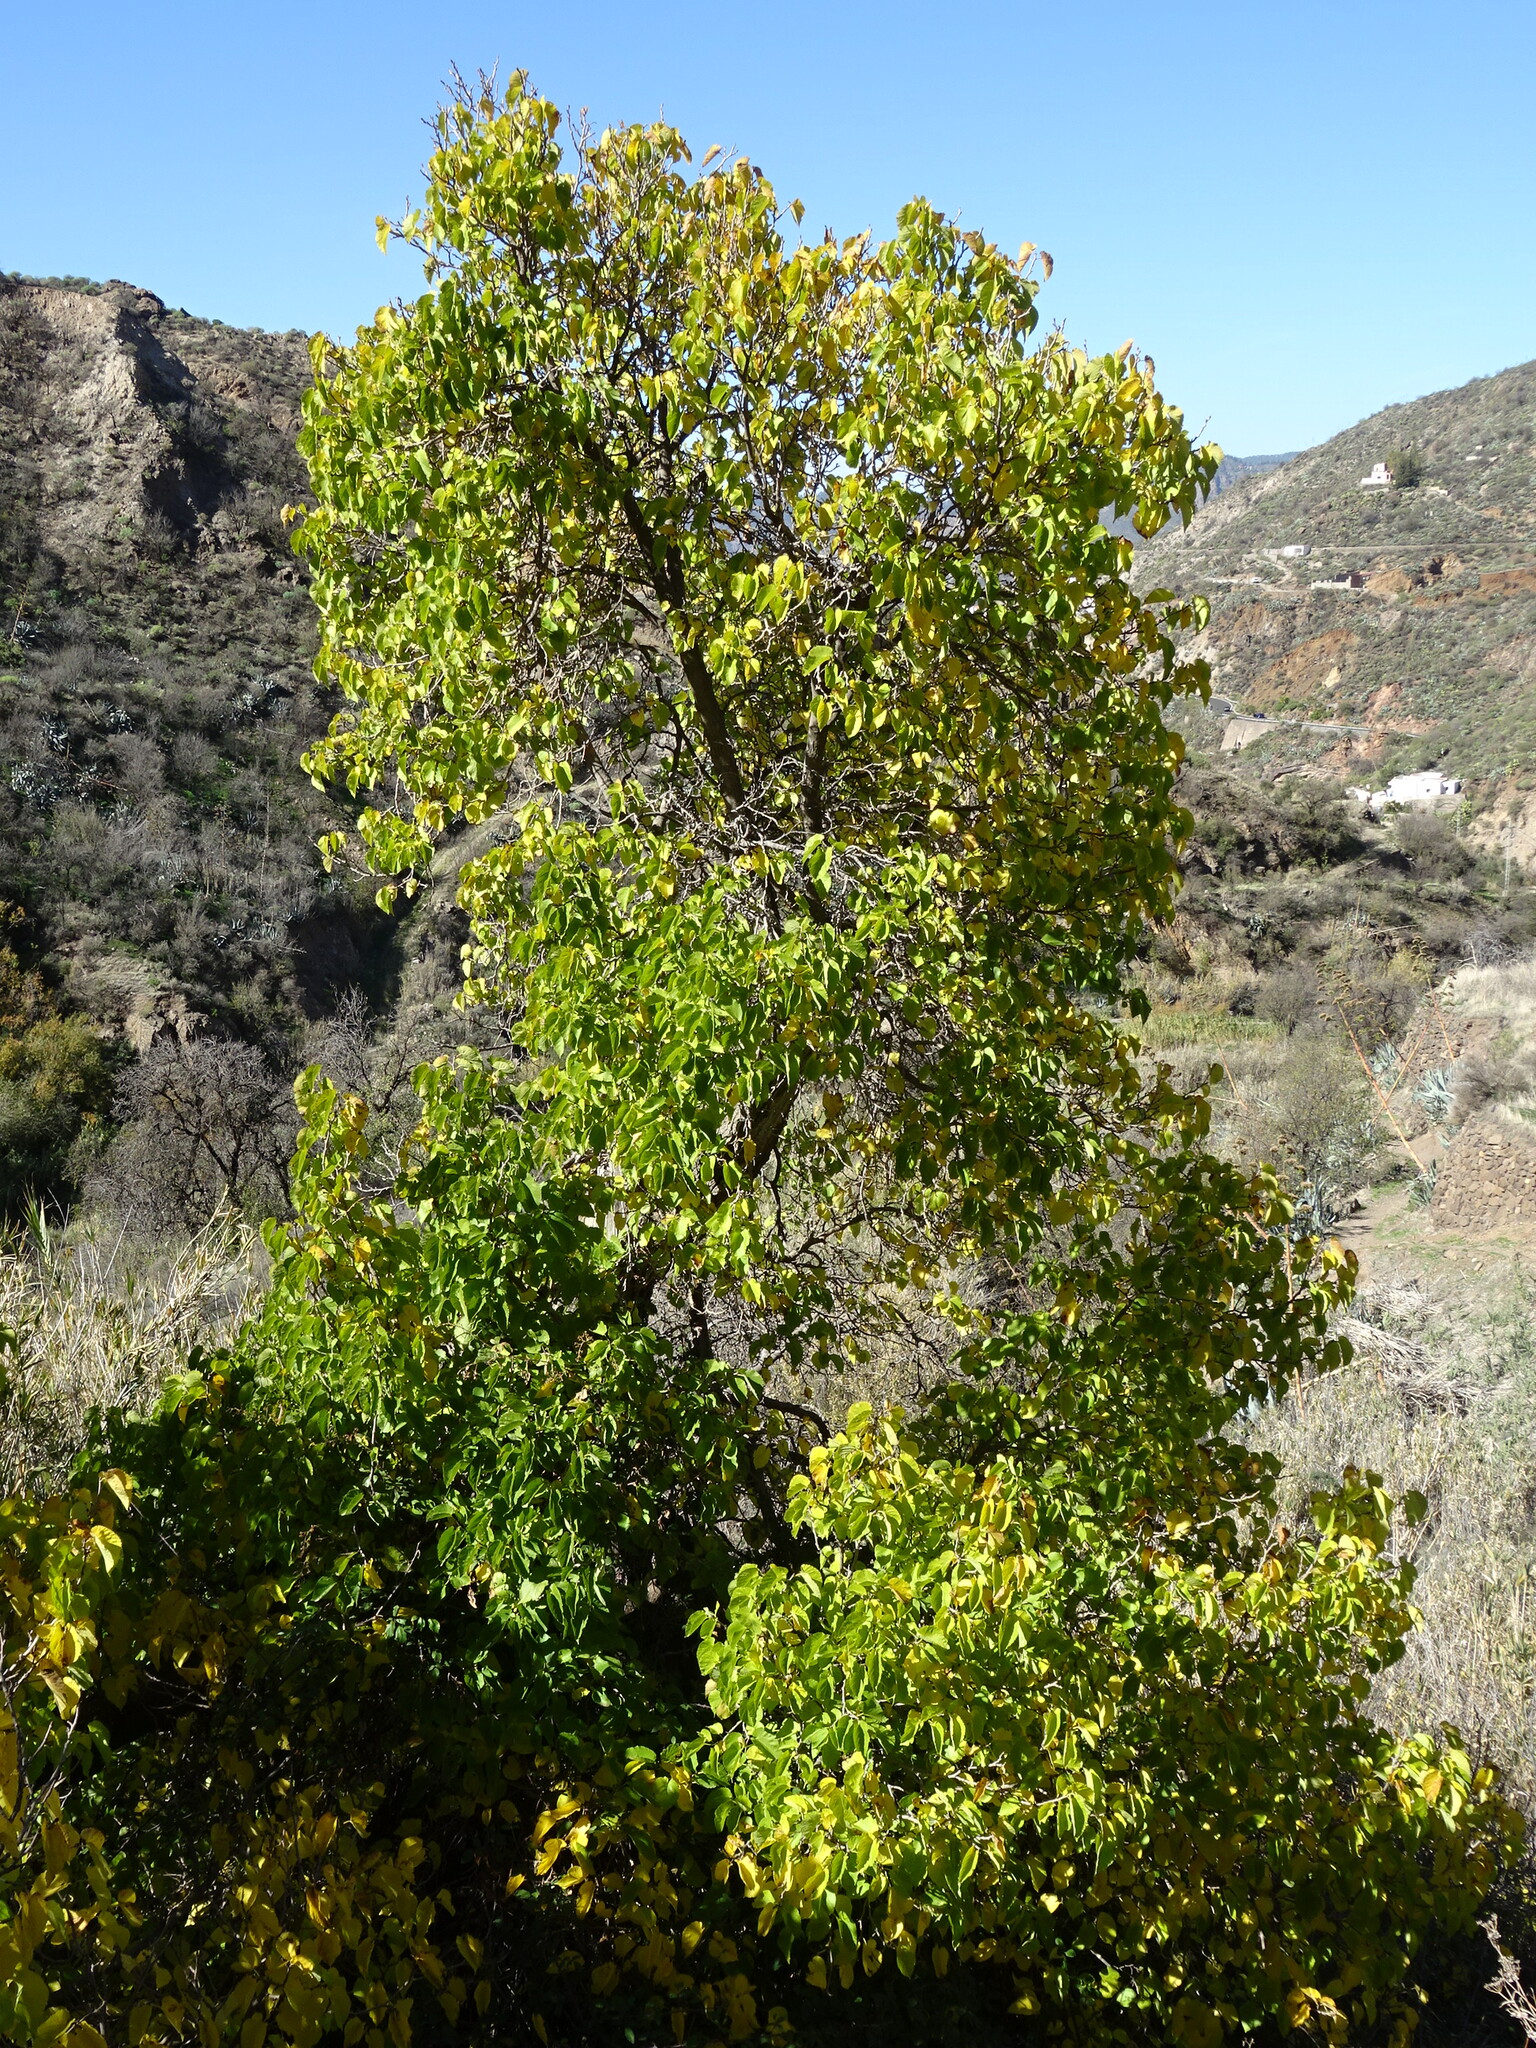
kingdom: Plantae
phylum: Tracheophyta
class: Magnoliopsida
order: Rosales
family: Moraceae
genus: Morus
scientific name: Morus nigra
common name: Black mulberry
